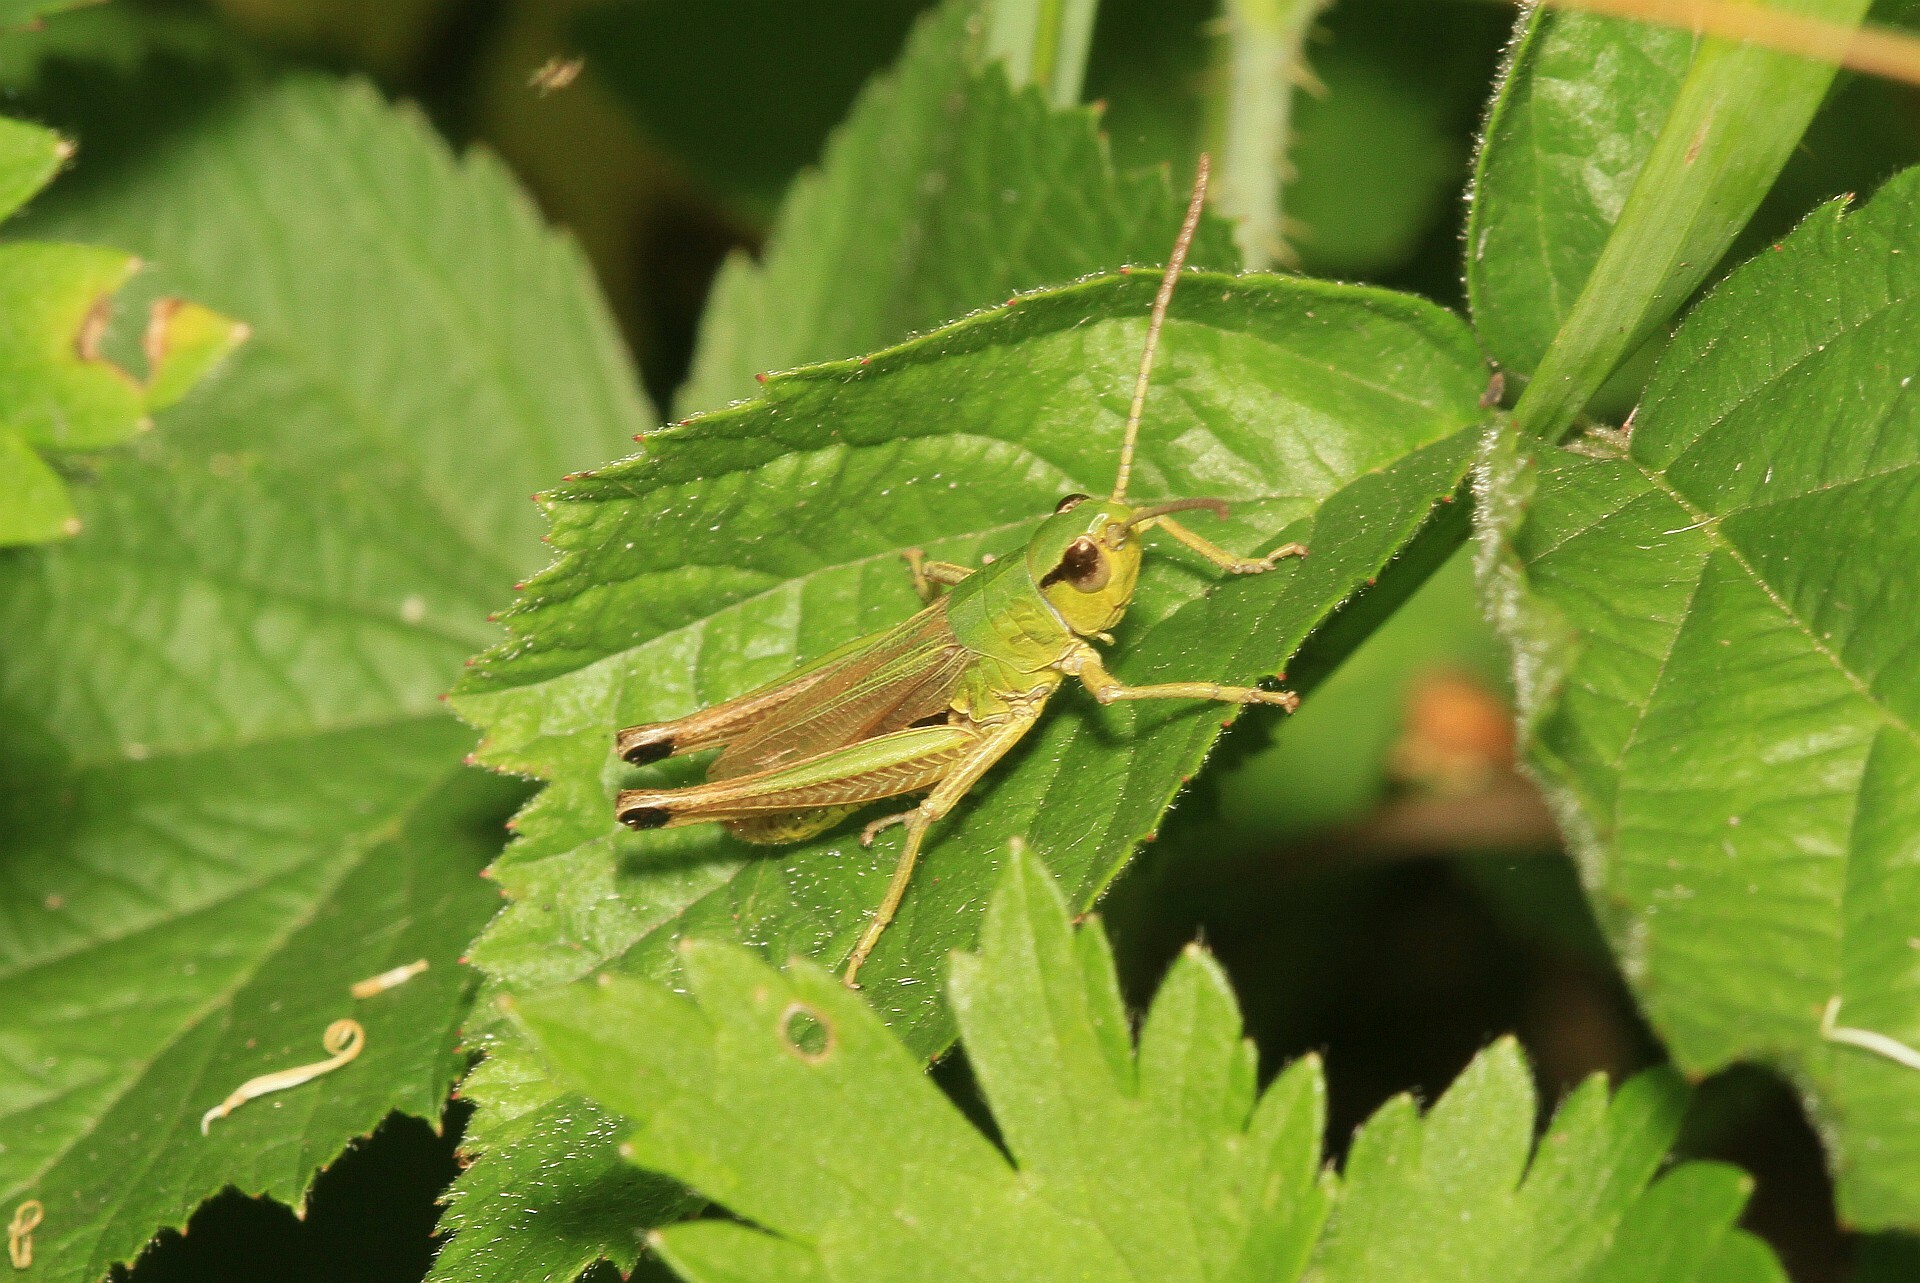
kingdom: Animalia
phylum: Arthropoda
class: Insecta
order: Orthoptera
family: Acrididae
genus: Pseudochorthippus
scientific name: Pseudochorthippus parallelus
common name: Meadow grasshopper
